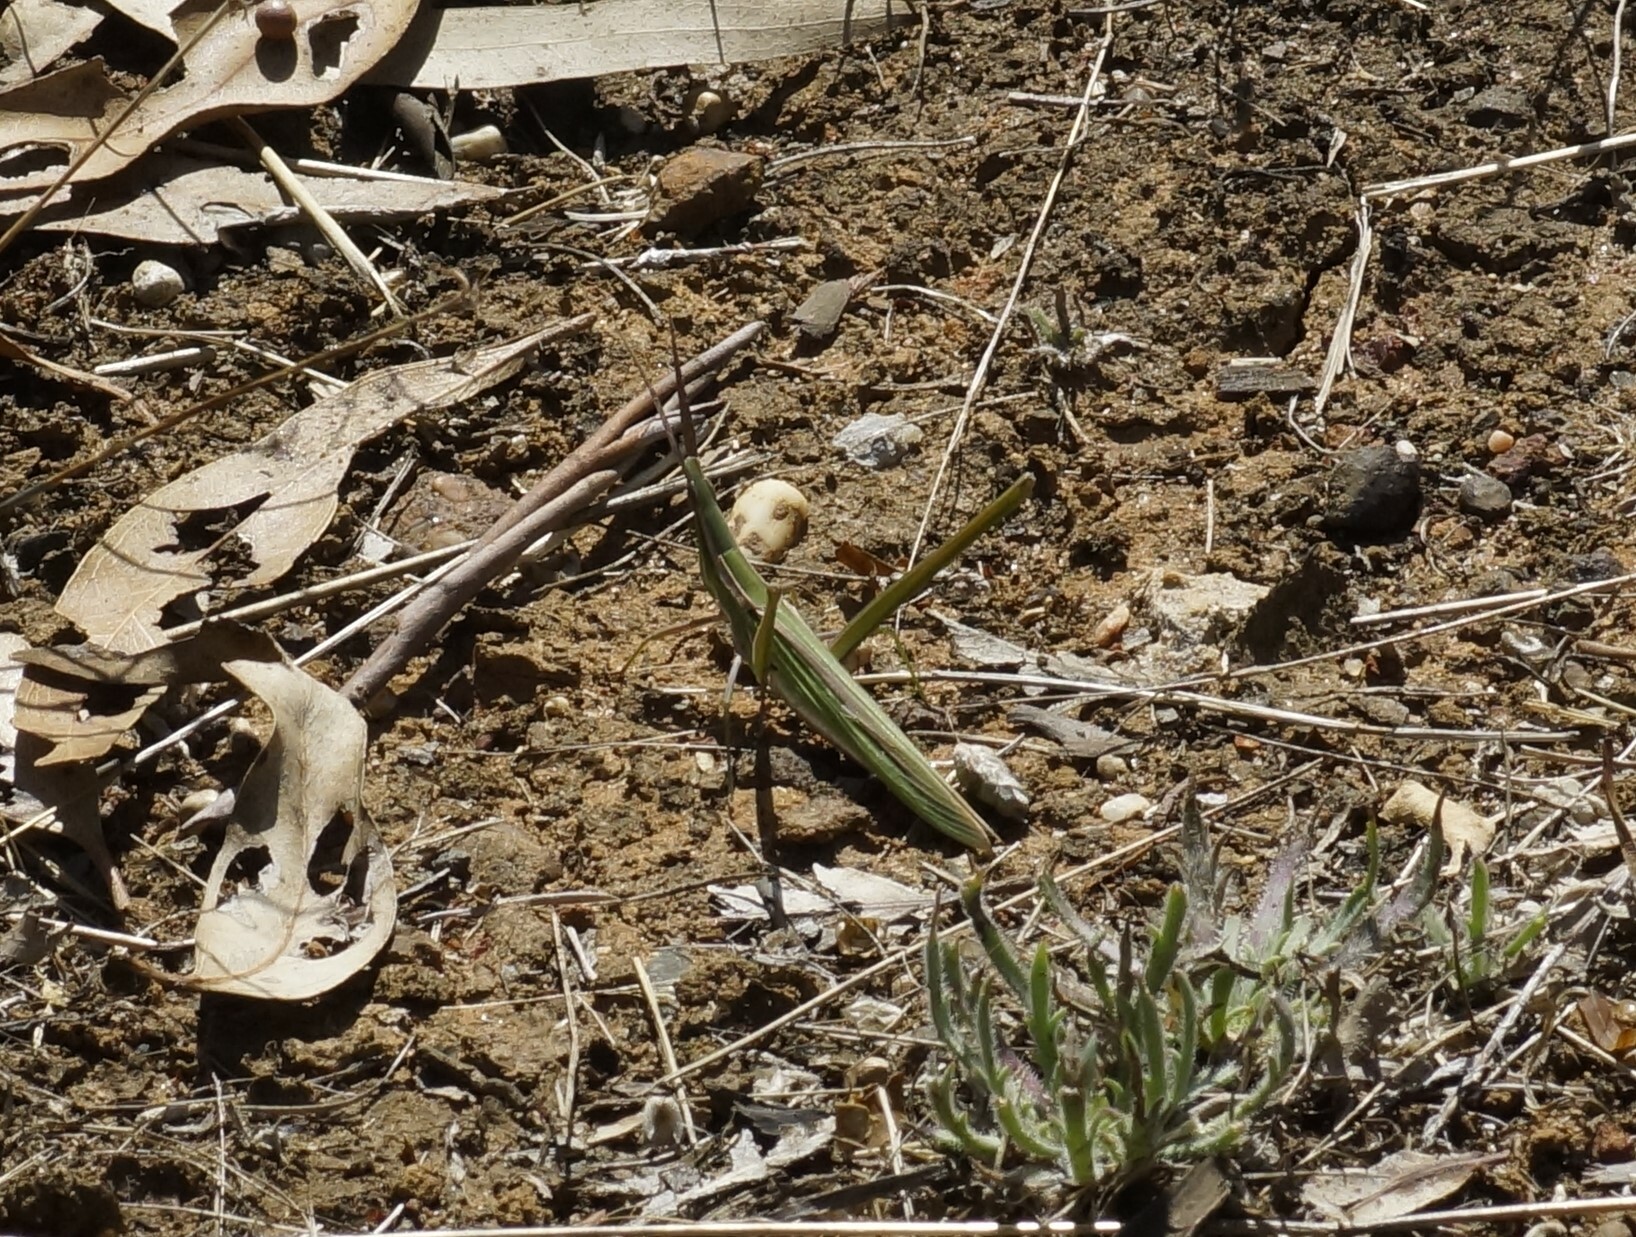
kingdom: Animalia
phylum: Arthropoda
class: Insecta
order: Orthoptera
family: Acrididae
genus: Acrida
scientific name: Acrida conica
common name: Giant green slantface
